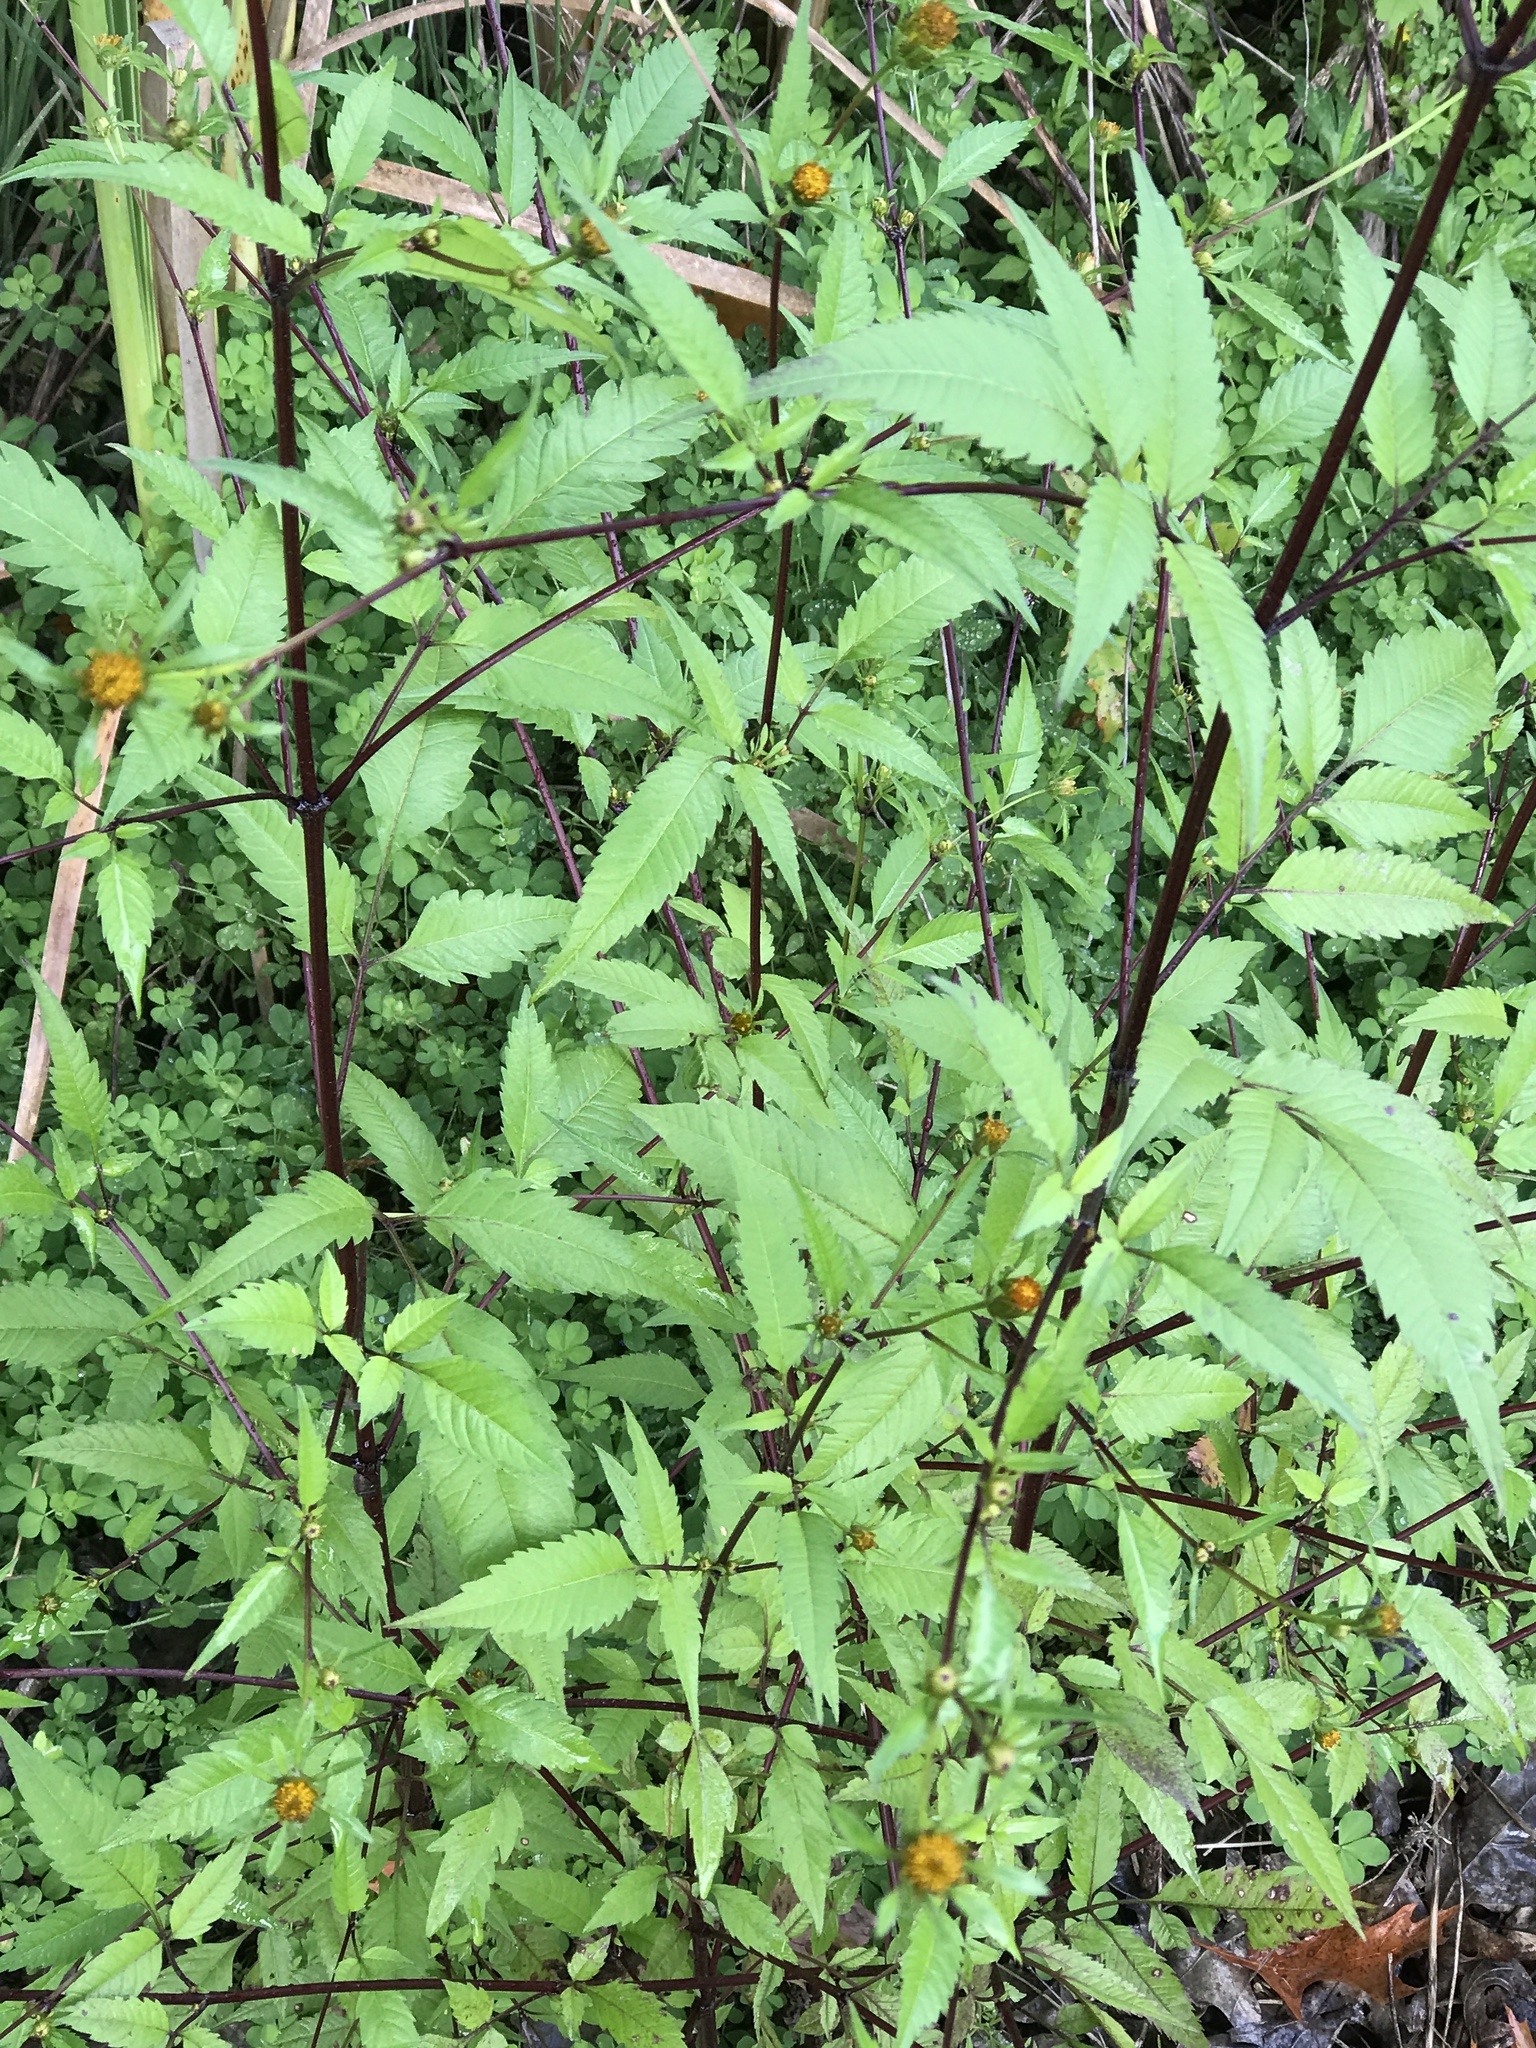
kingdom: Plantae
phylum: Tracheophyta
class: Magnoliopsida
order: Asterales
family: Asteraceae
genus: Bidens
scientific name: Bidens frondosa
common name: Beggarticks
